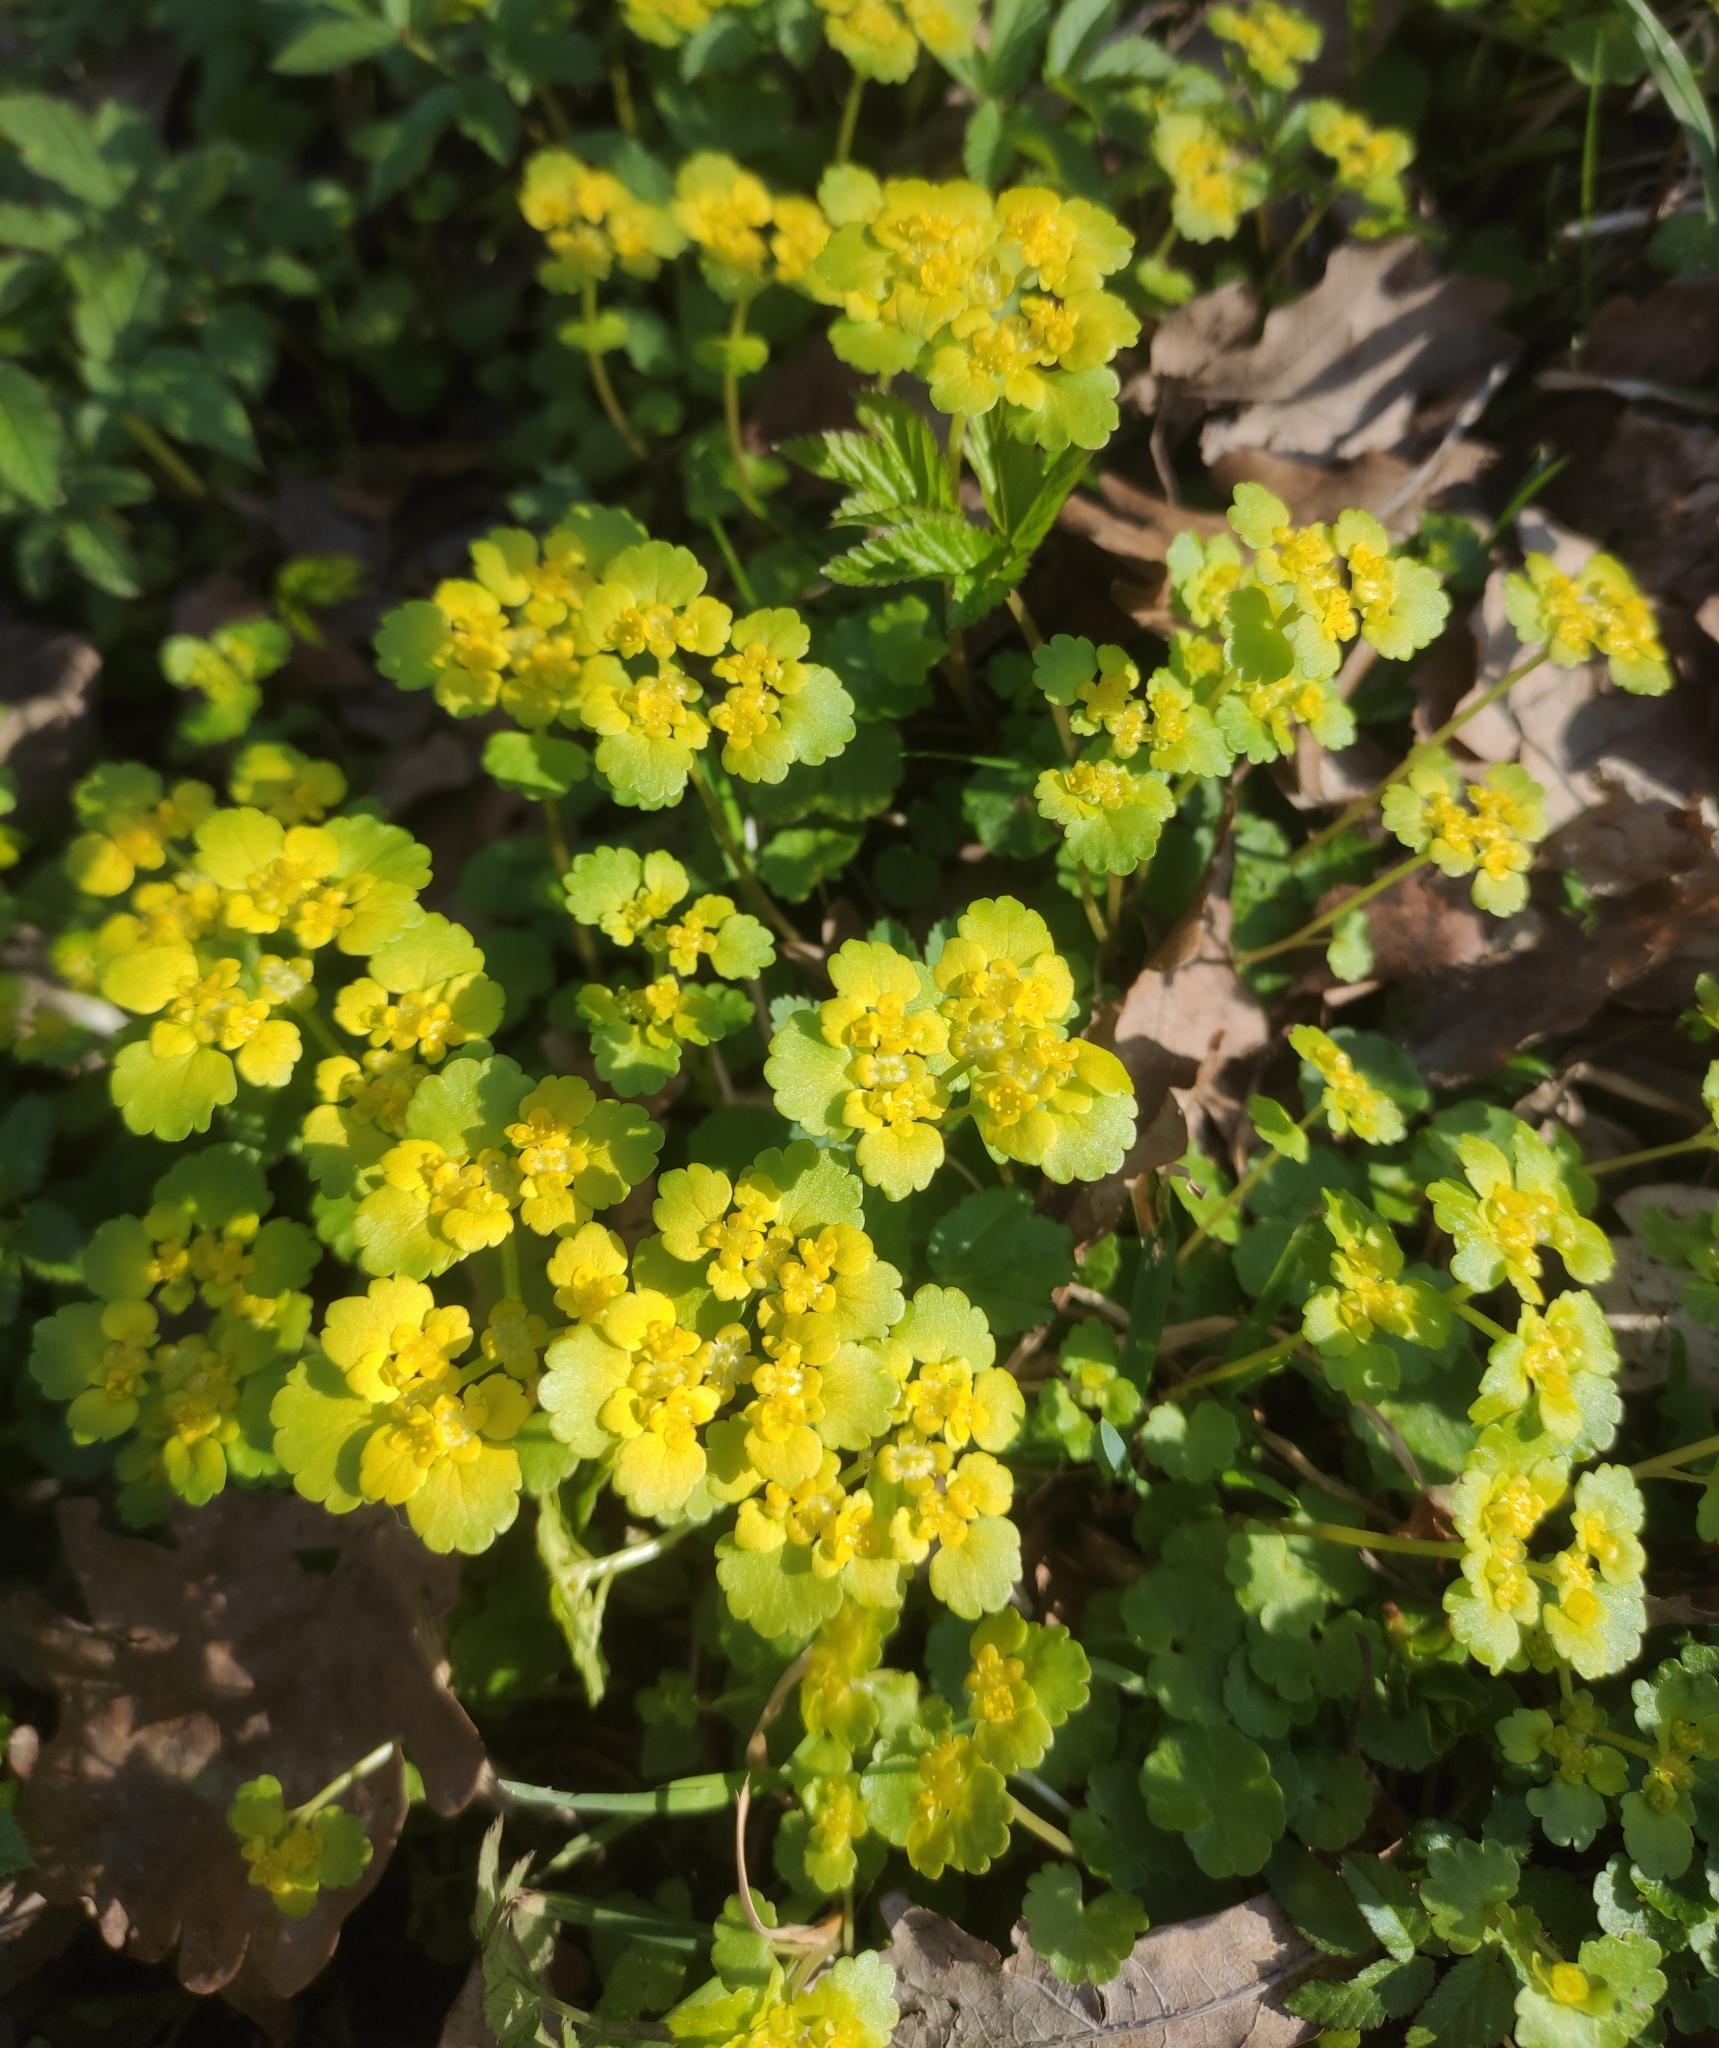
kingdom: Plantae
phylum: Tracheophyta
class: Magnoliopsida
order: Saxifragales
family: Saxifragaceae
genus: Chrysosplenium
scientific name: Chrysosplenium alternifolium
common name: Alternate-leaved golden-saxifrage
